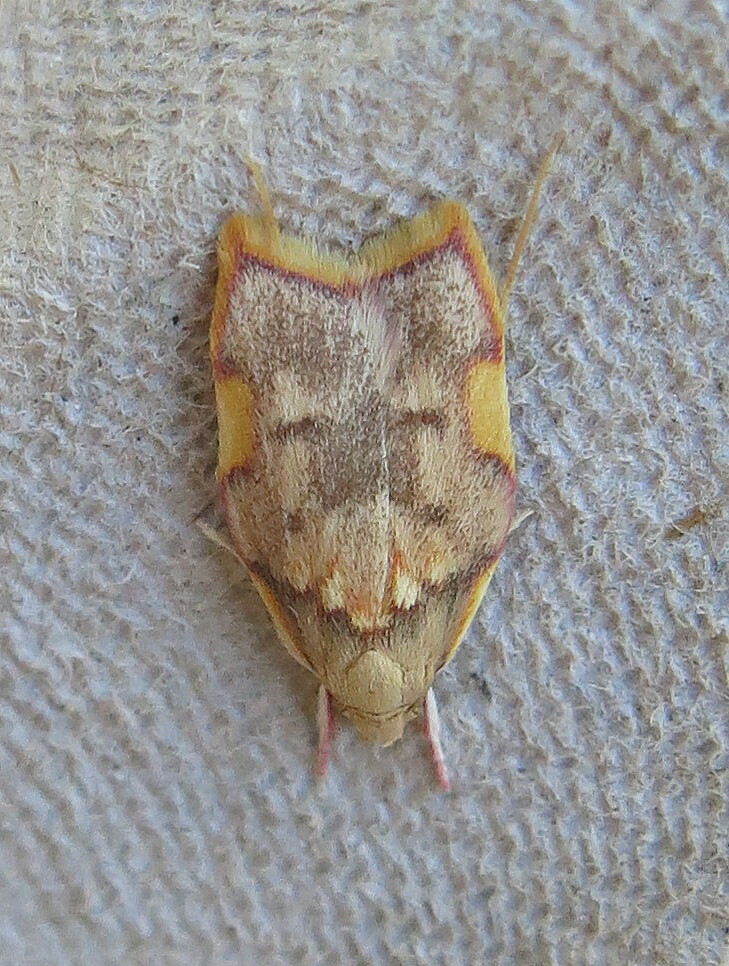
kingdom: Animalia
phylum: Arthropoda
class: Insecta
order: Lepidoptera
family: Peleopodidae
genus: Carcina
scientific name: Carcina quercana
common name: Moth
